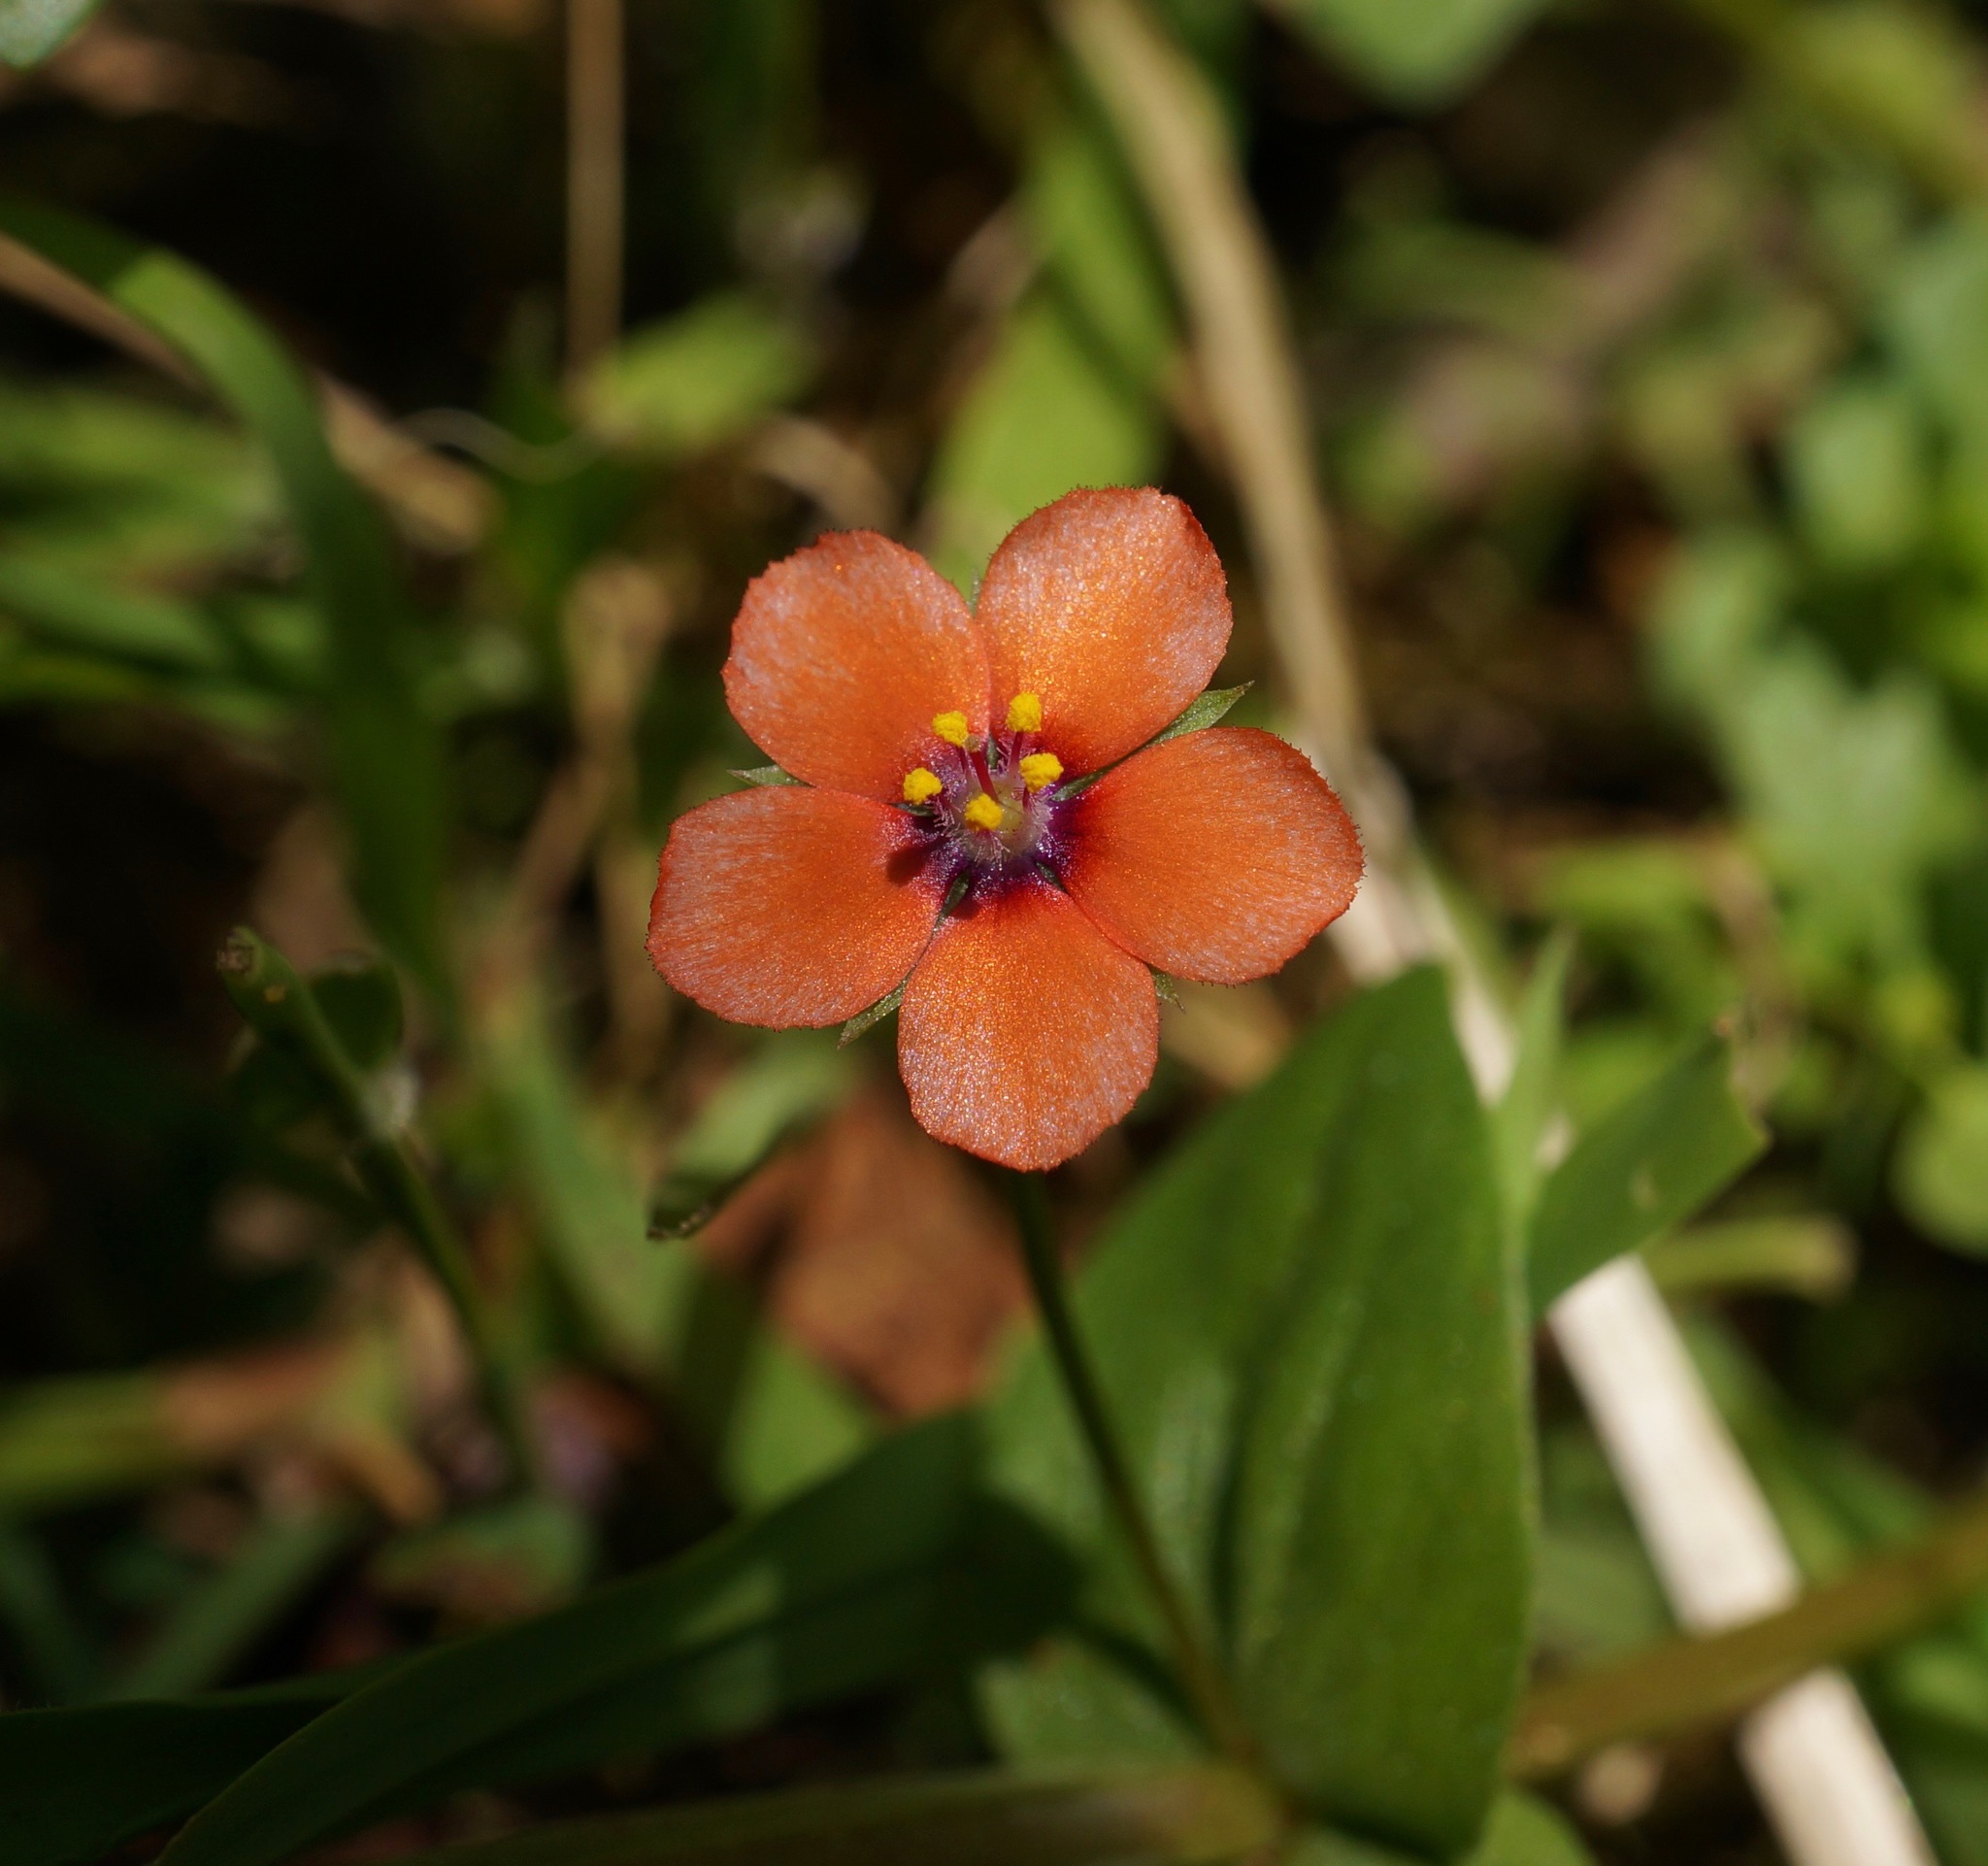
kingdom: Plantae
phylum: Tracheophyta
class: Magnoliopsida
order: Ericales
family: Primulaceae
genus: Lysimachia
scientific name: Lysimachia arvensis
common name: Scarlet pimpernel
